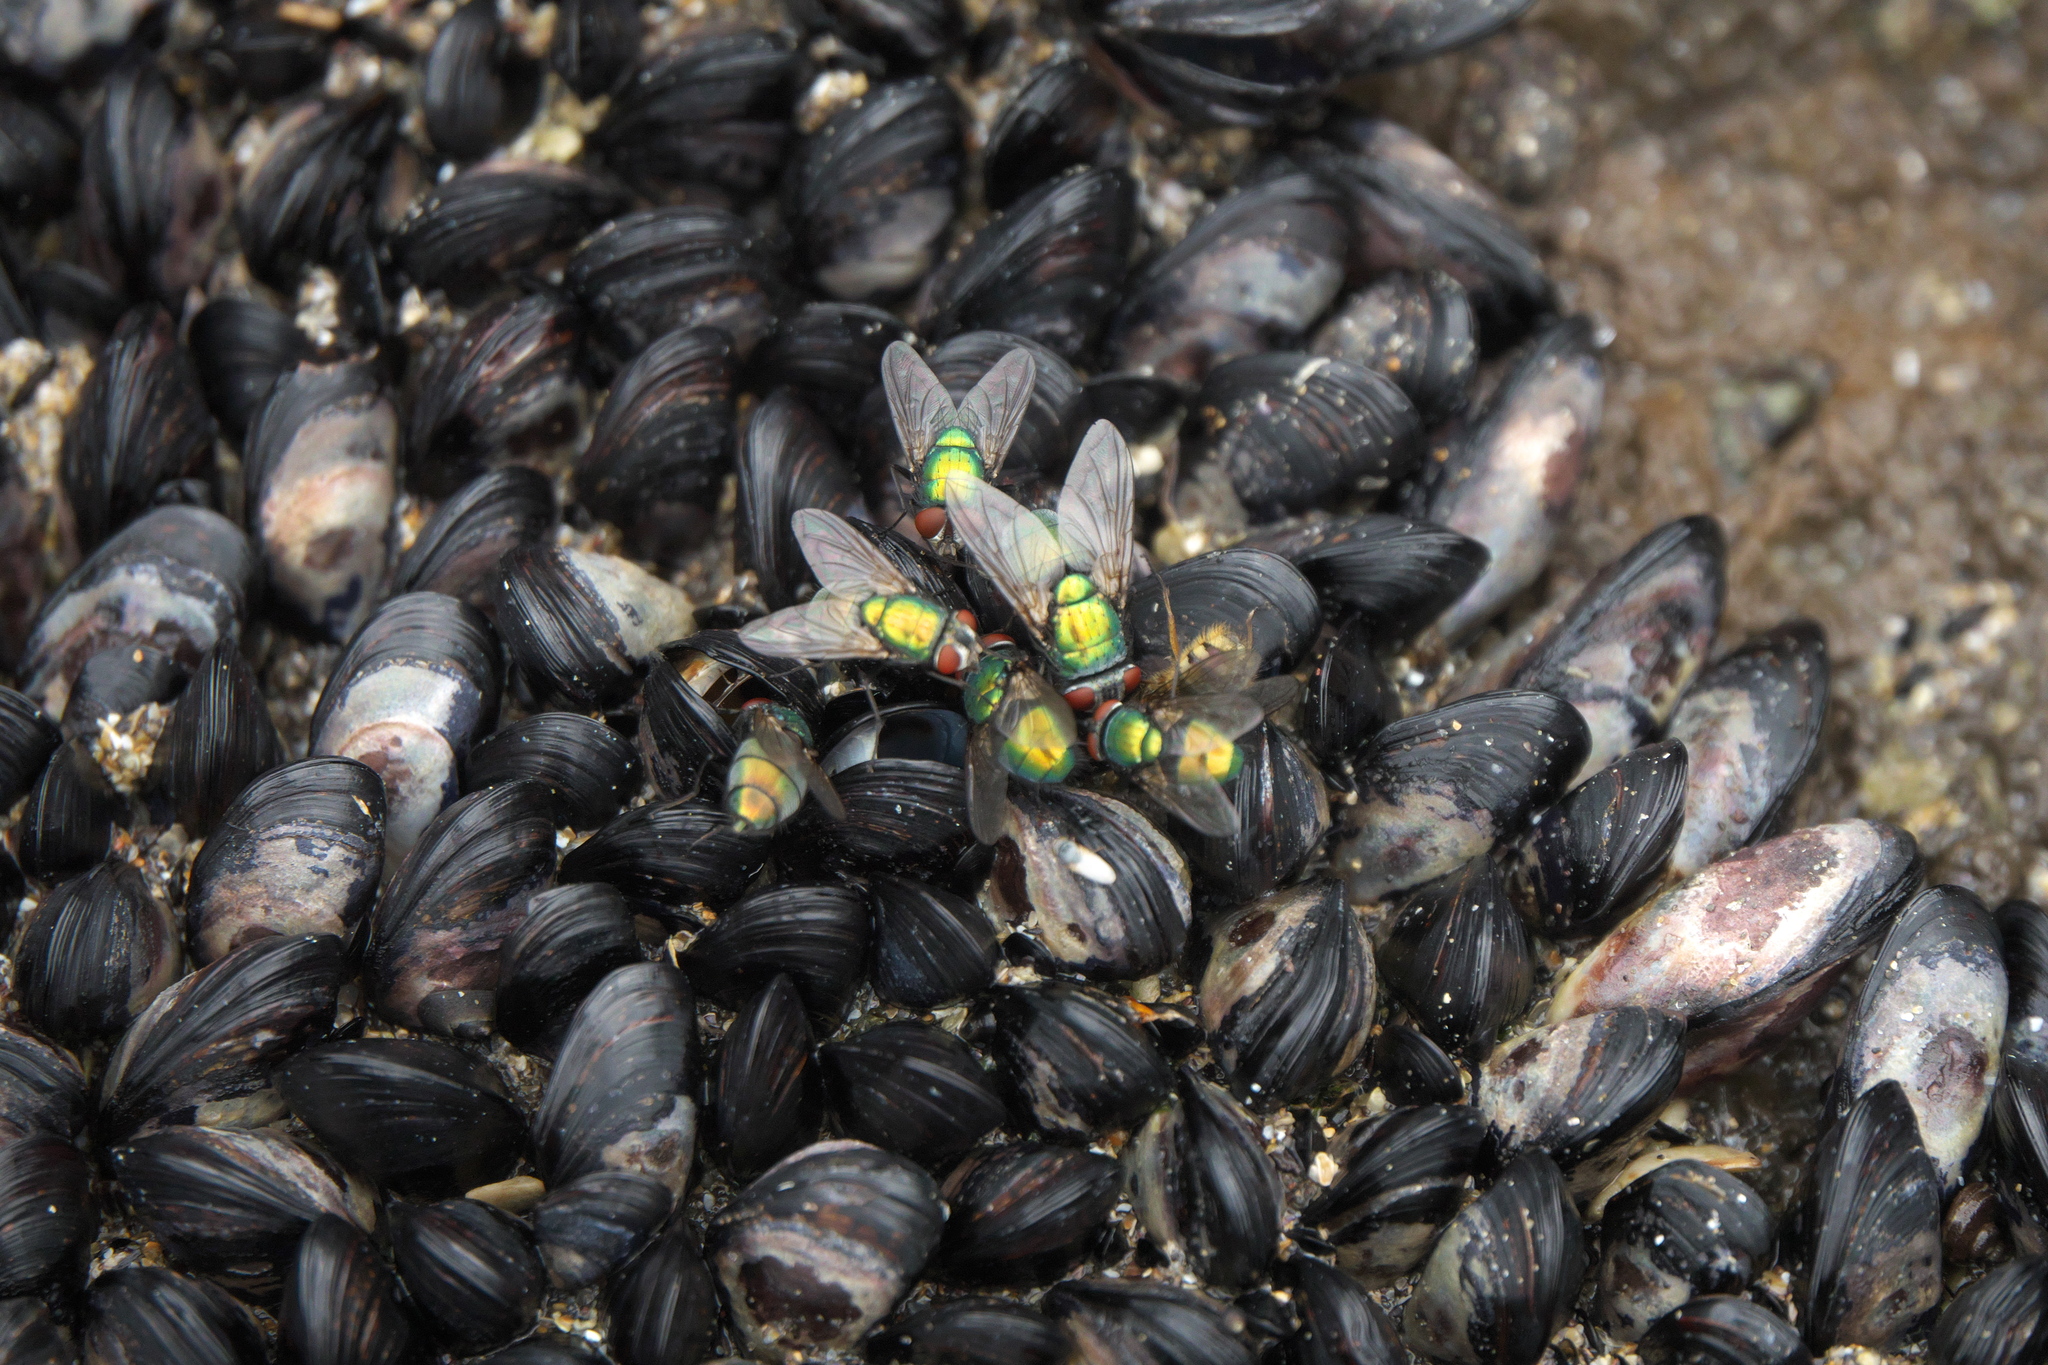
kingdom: Animalia
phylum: Mollusca
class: Bivalvia
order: Mytilida
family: Mytilidae
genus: Xenostrobus
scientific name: Xenostrobus neozelanicus
